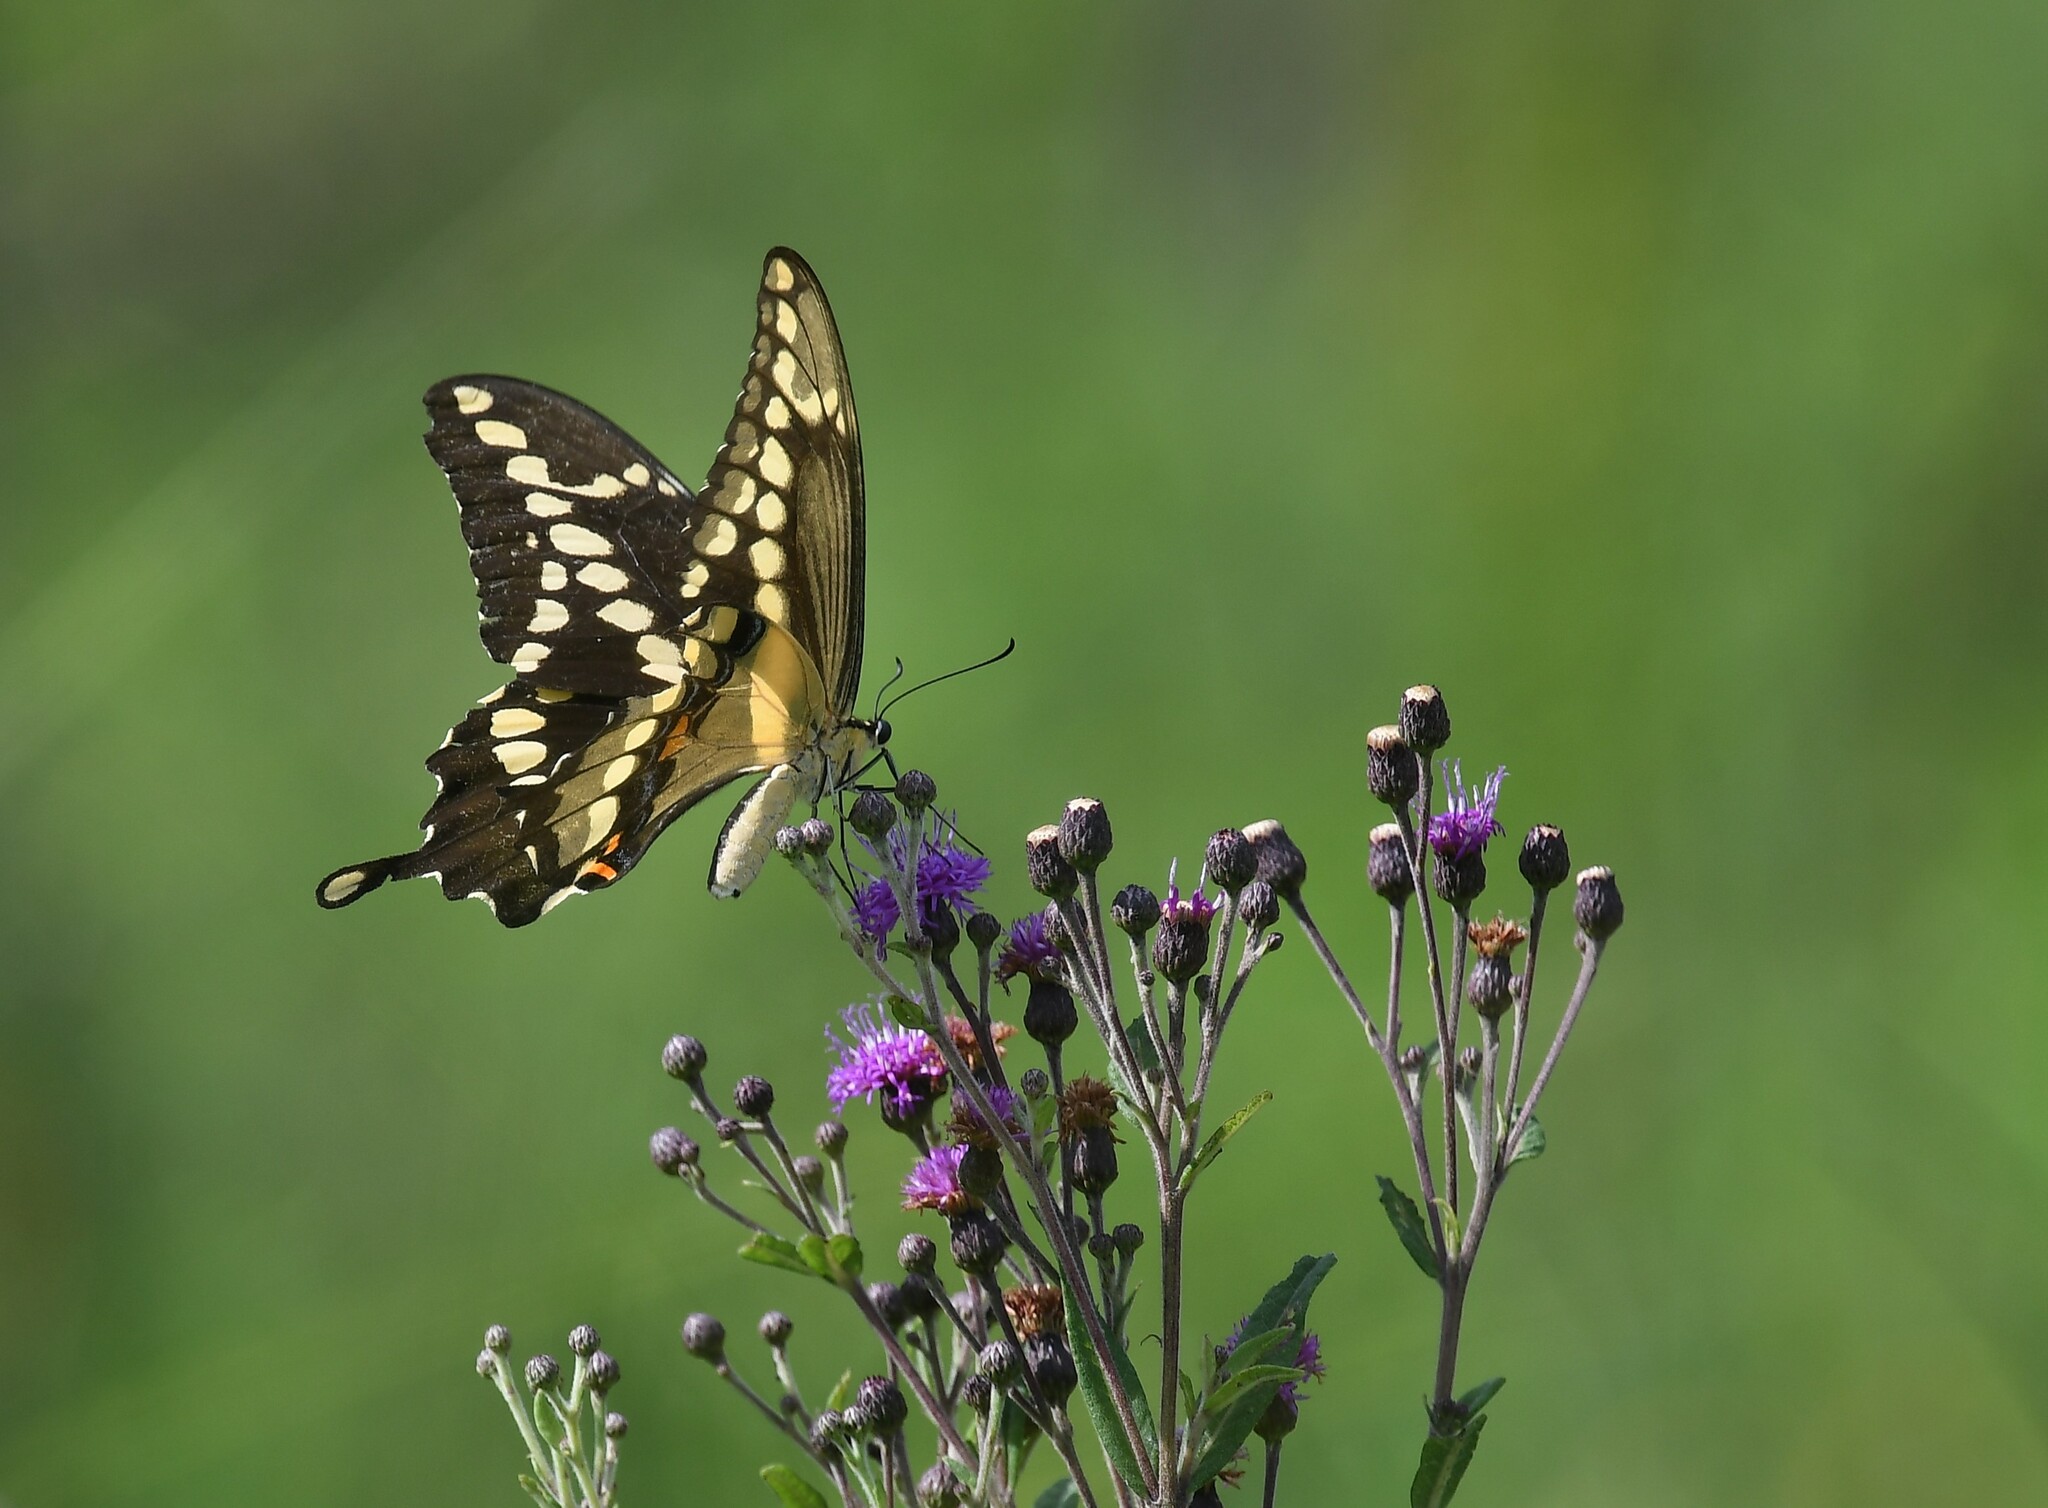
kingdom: Animalia
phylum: Arthropoda
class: Insecta
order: Lepidoptera
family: Papilionidae
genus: Papilio
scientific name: Papilio cresphontes
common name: Giant swallowtail
